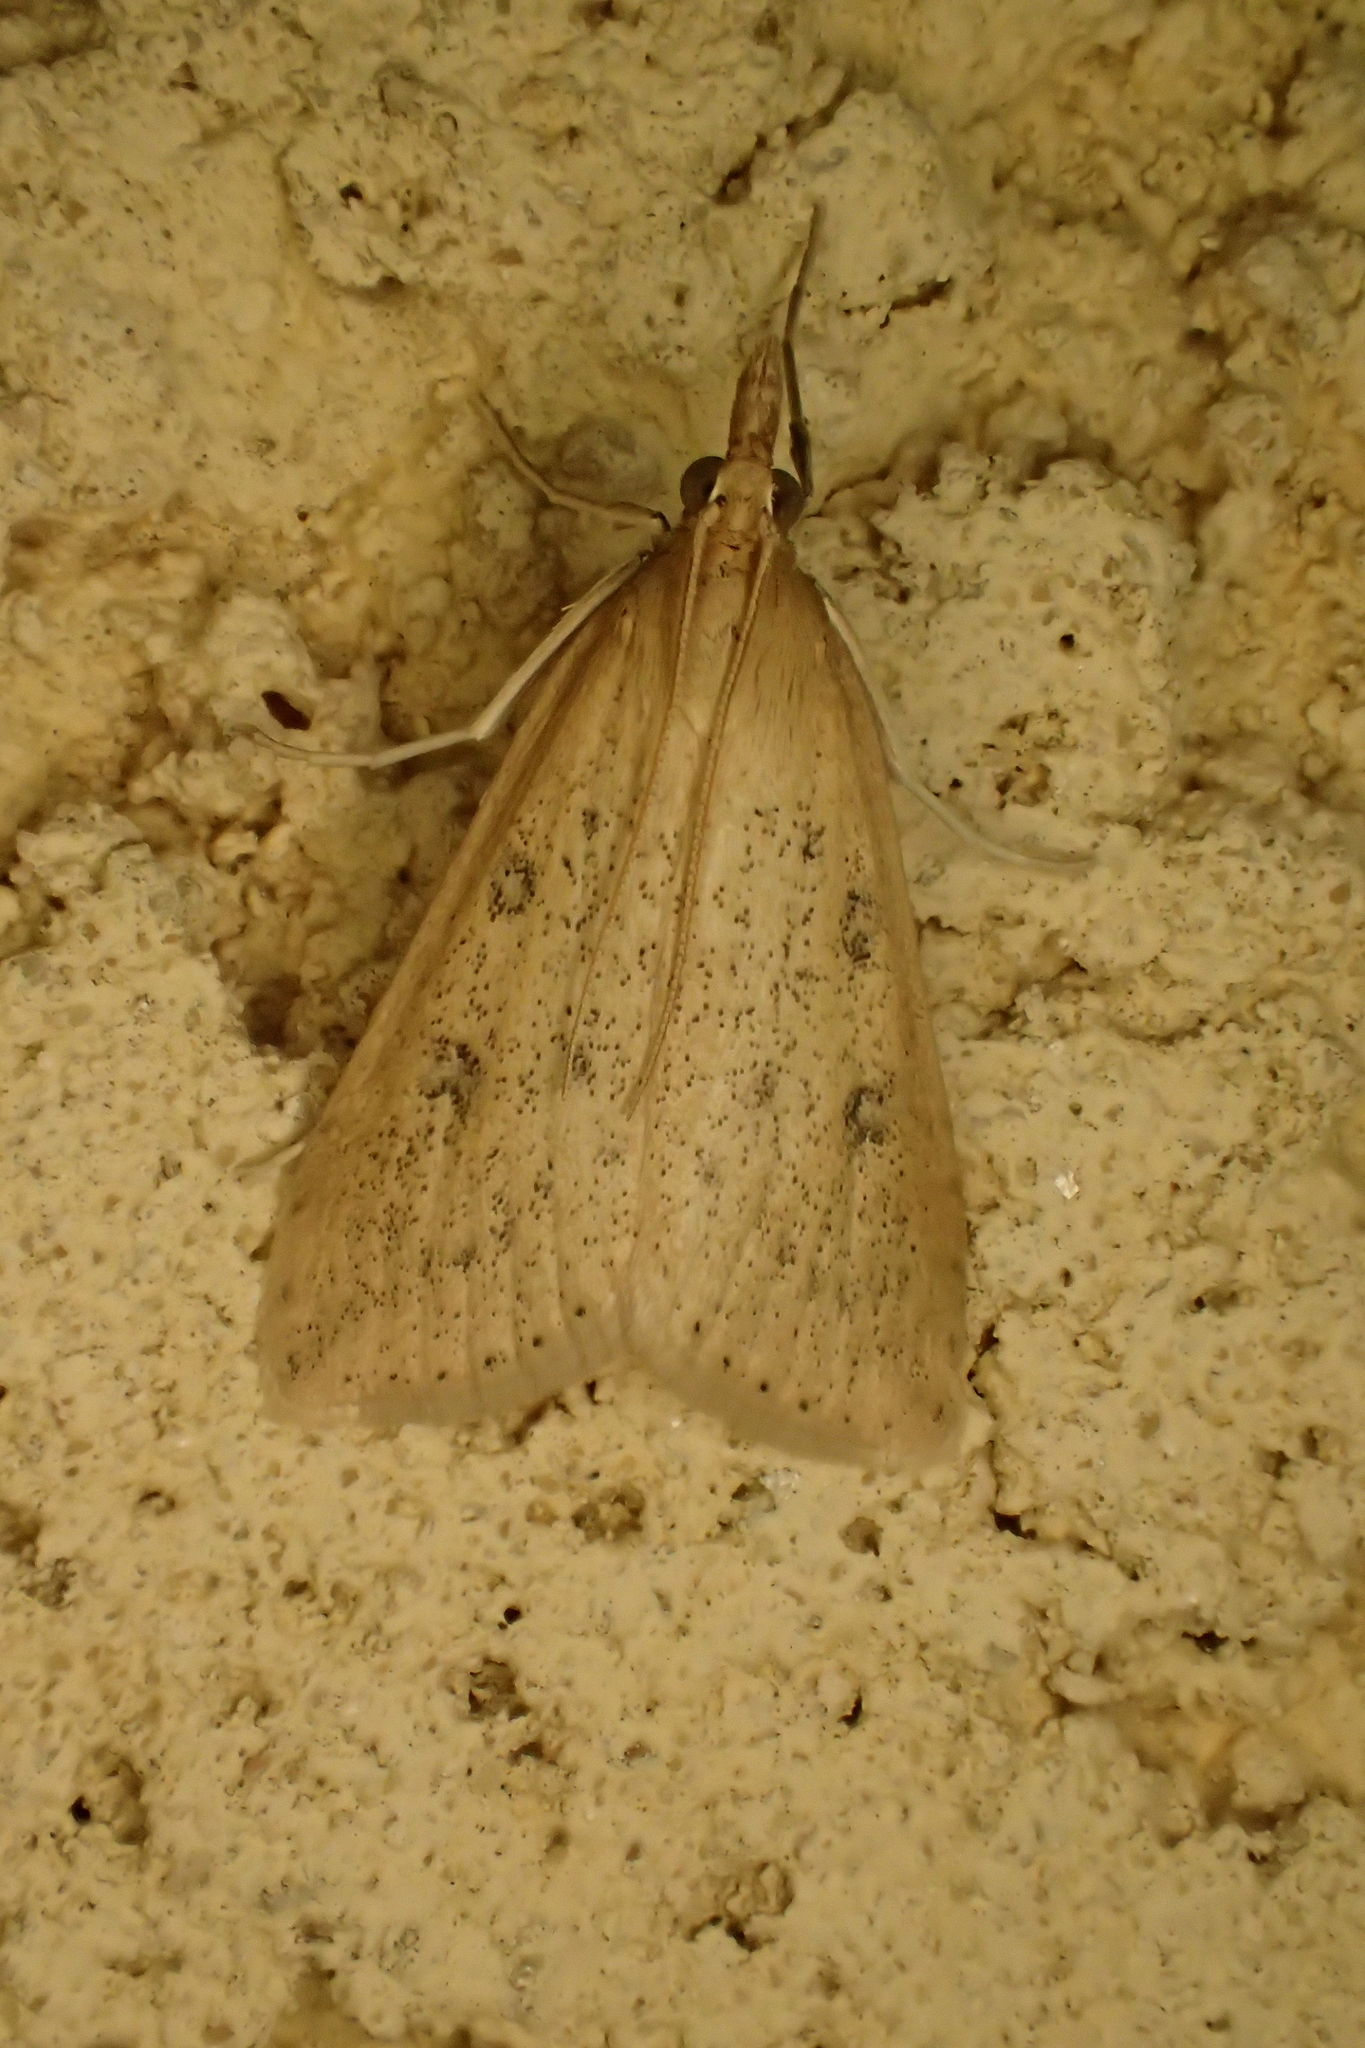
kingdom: Animalia
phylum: Arthropoda
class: Insecta
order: Lepidoptera
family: Crambidae
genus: Udea
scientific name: Udea numeralis
